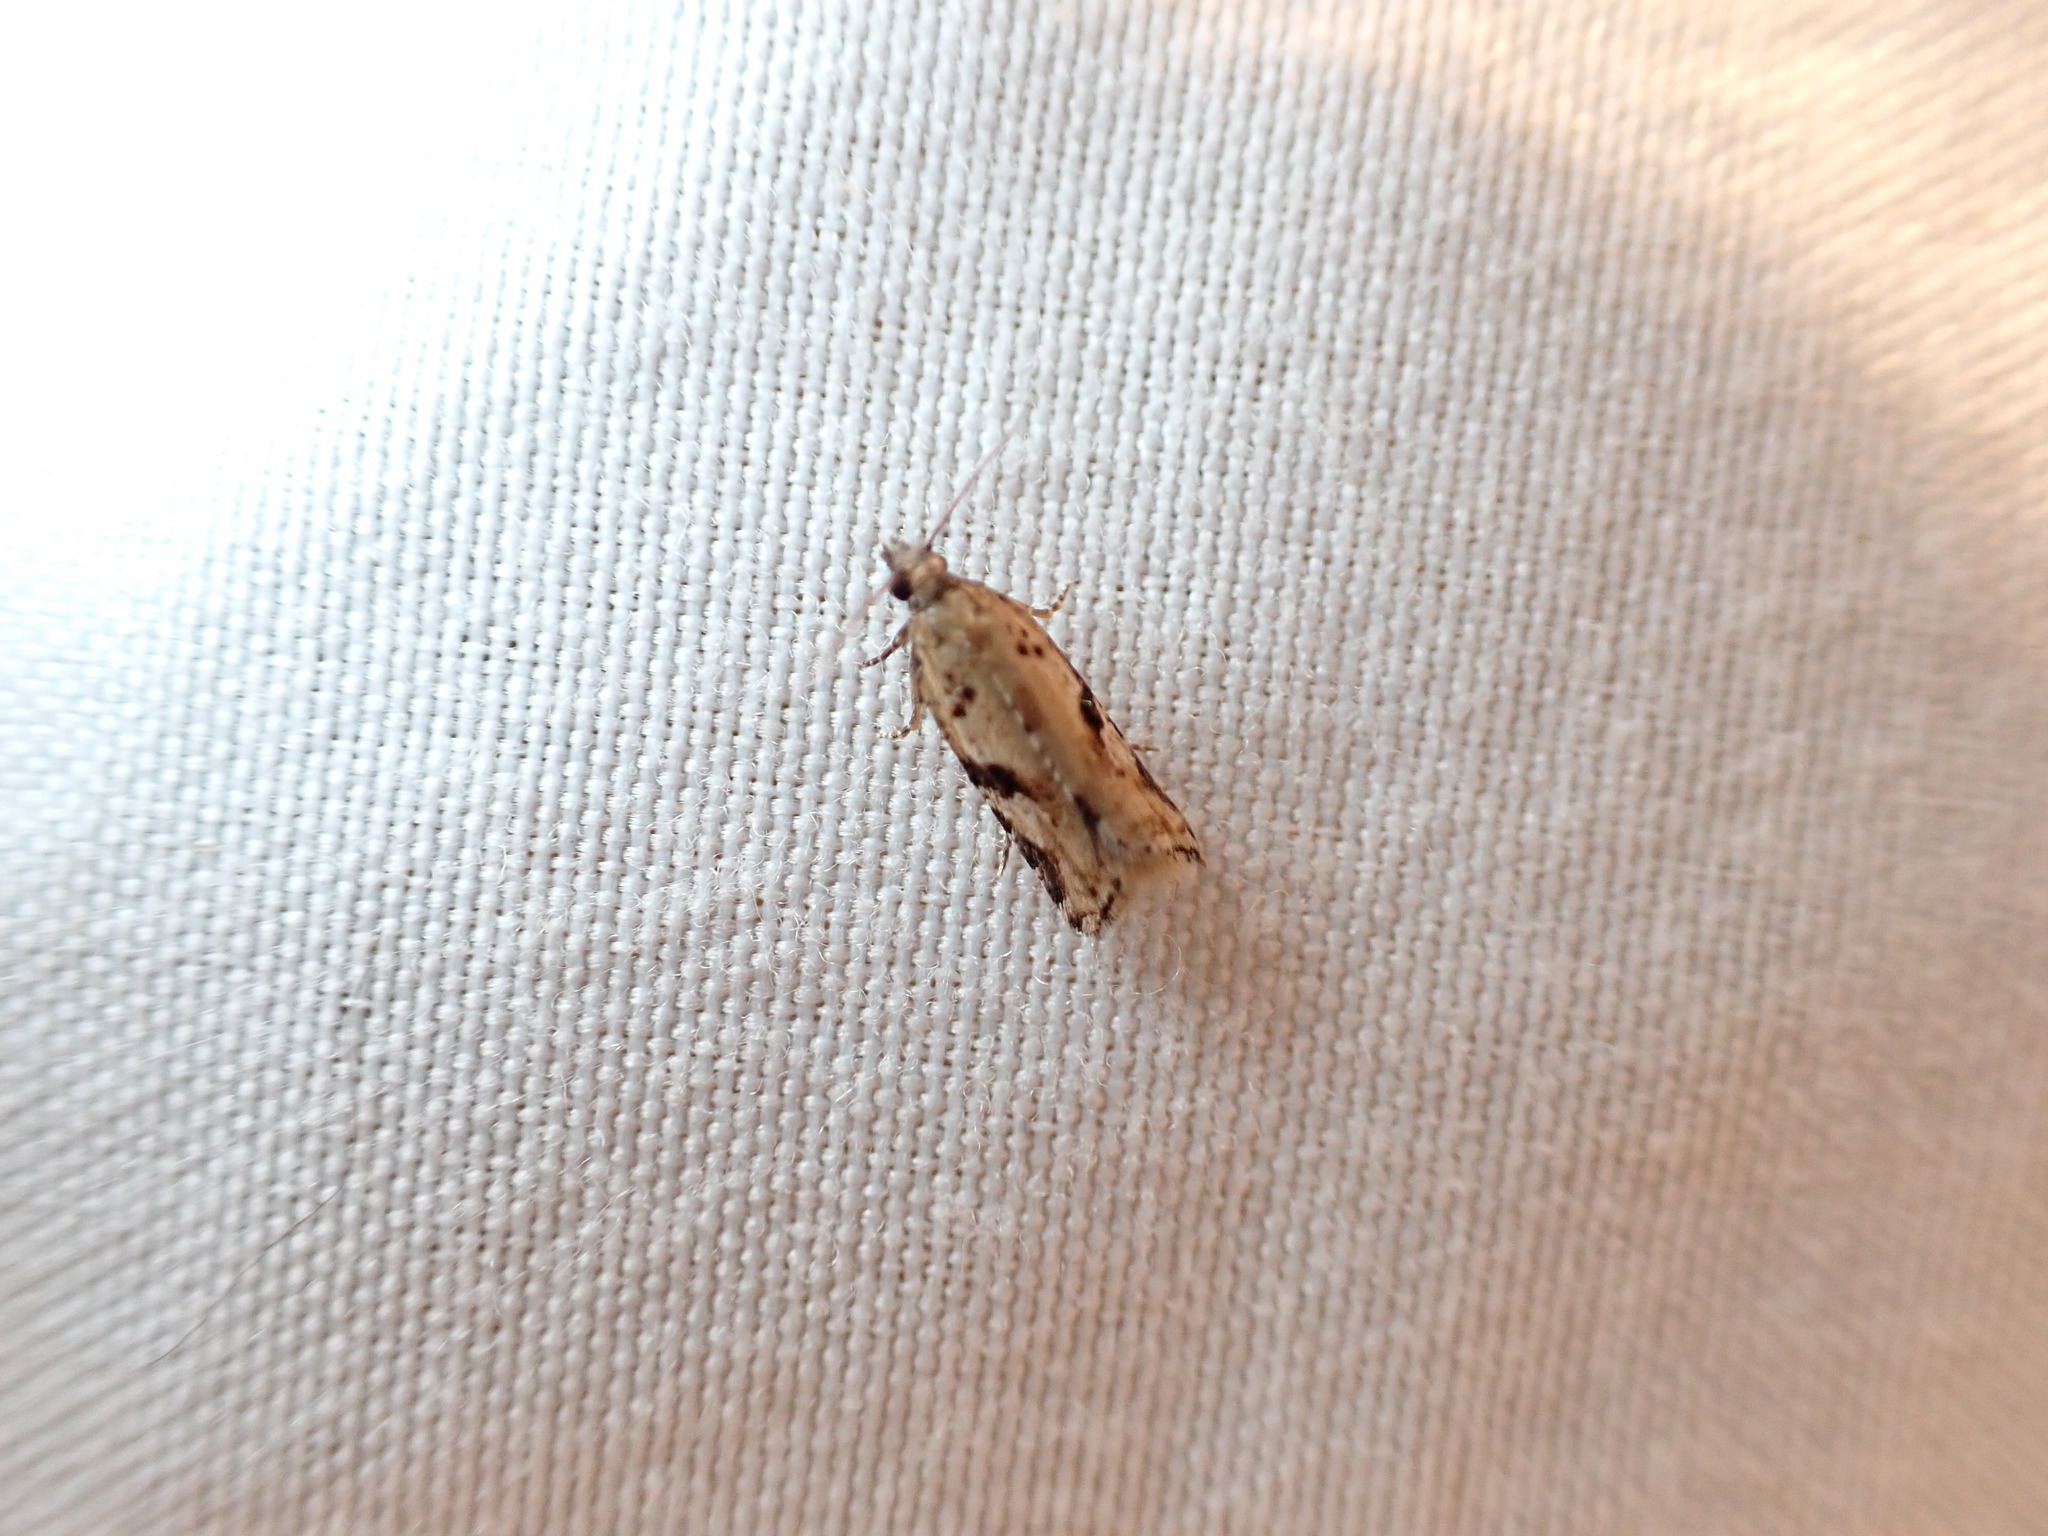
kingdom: Animalia
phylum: Arthropoda
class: Insecta
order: Lepidoptera
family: Tortricidae
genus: Capua
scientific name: Capua semiferana
